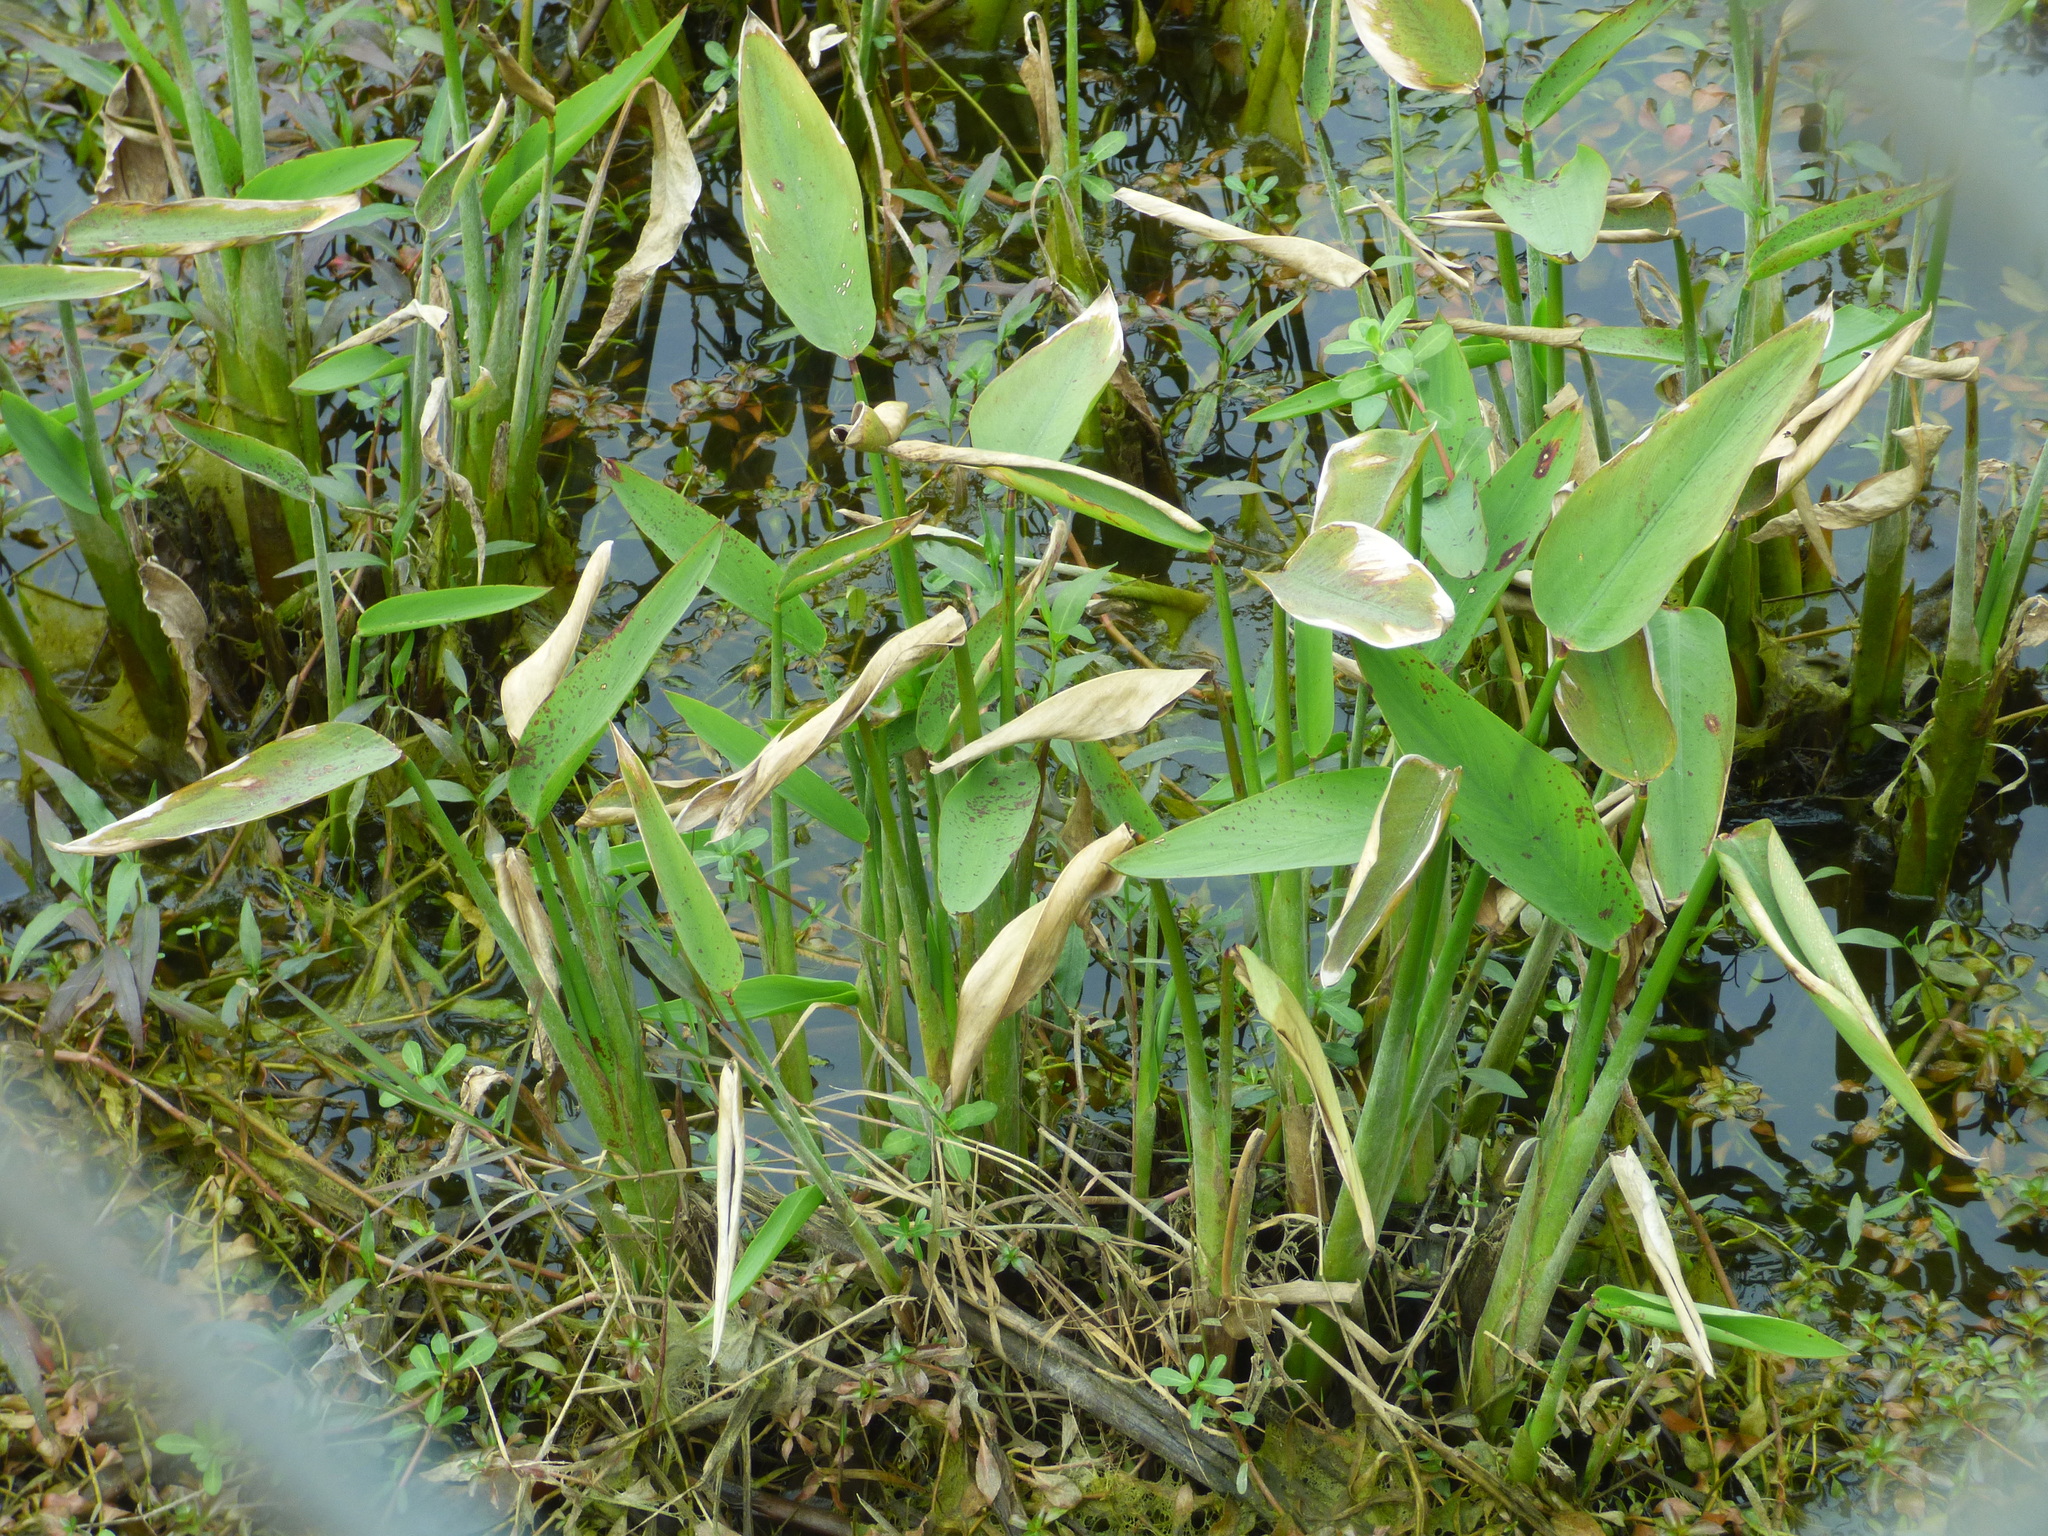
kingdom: Plantae
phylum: Tracheophyta
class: Liliopsida
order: Zingiberales
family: Marantaceae
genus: Thalia
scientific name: Thalia geniculata
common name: Arrowroot
